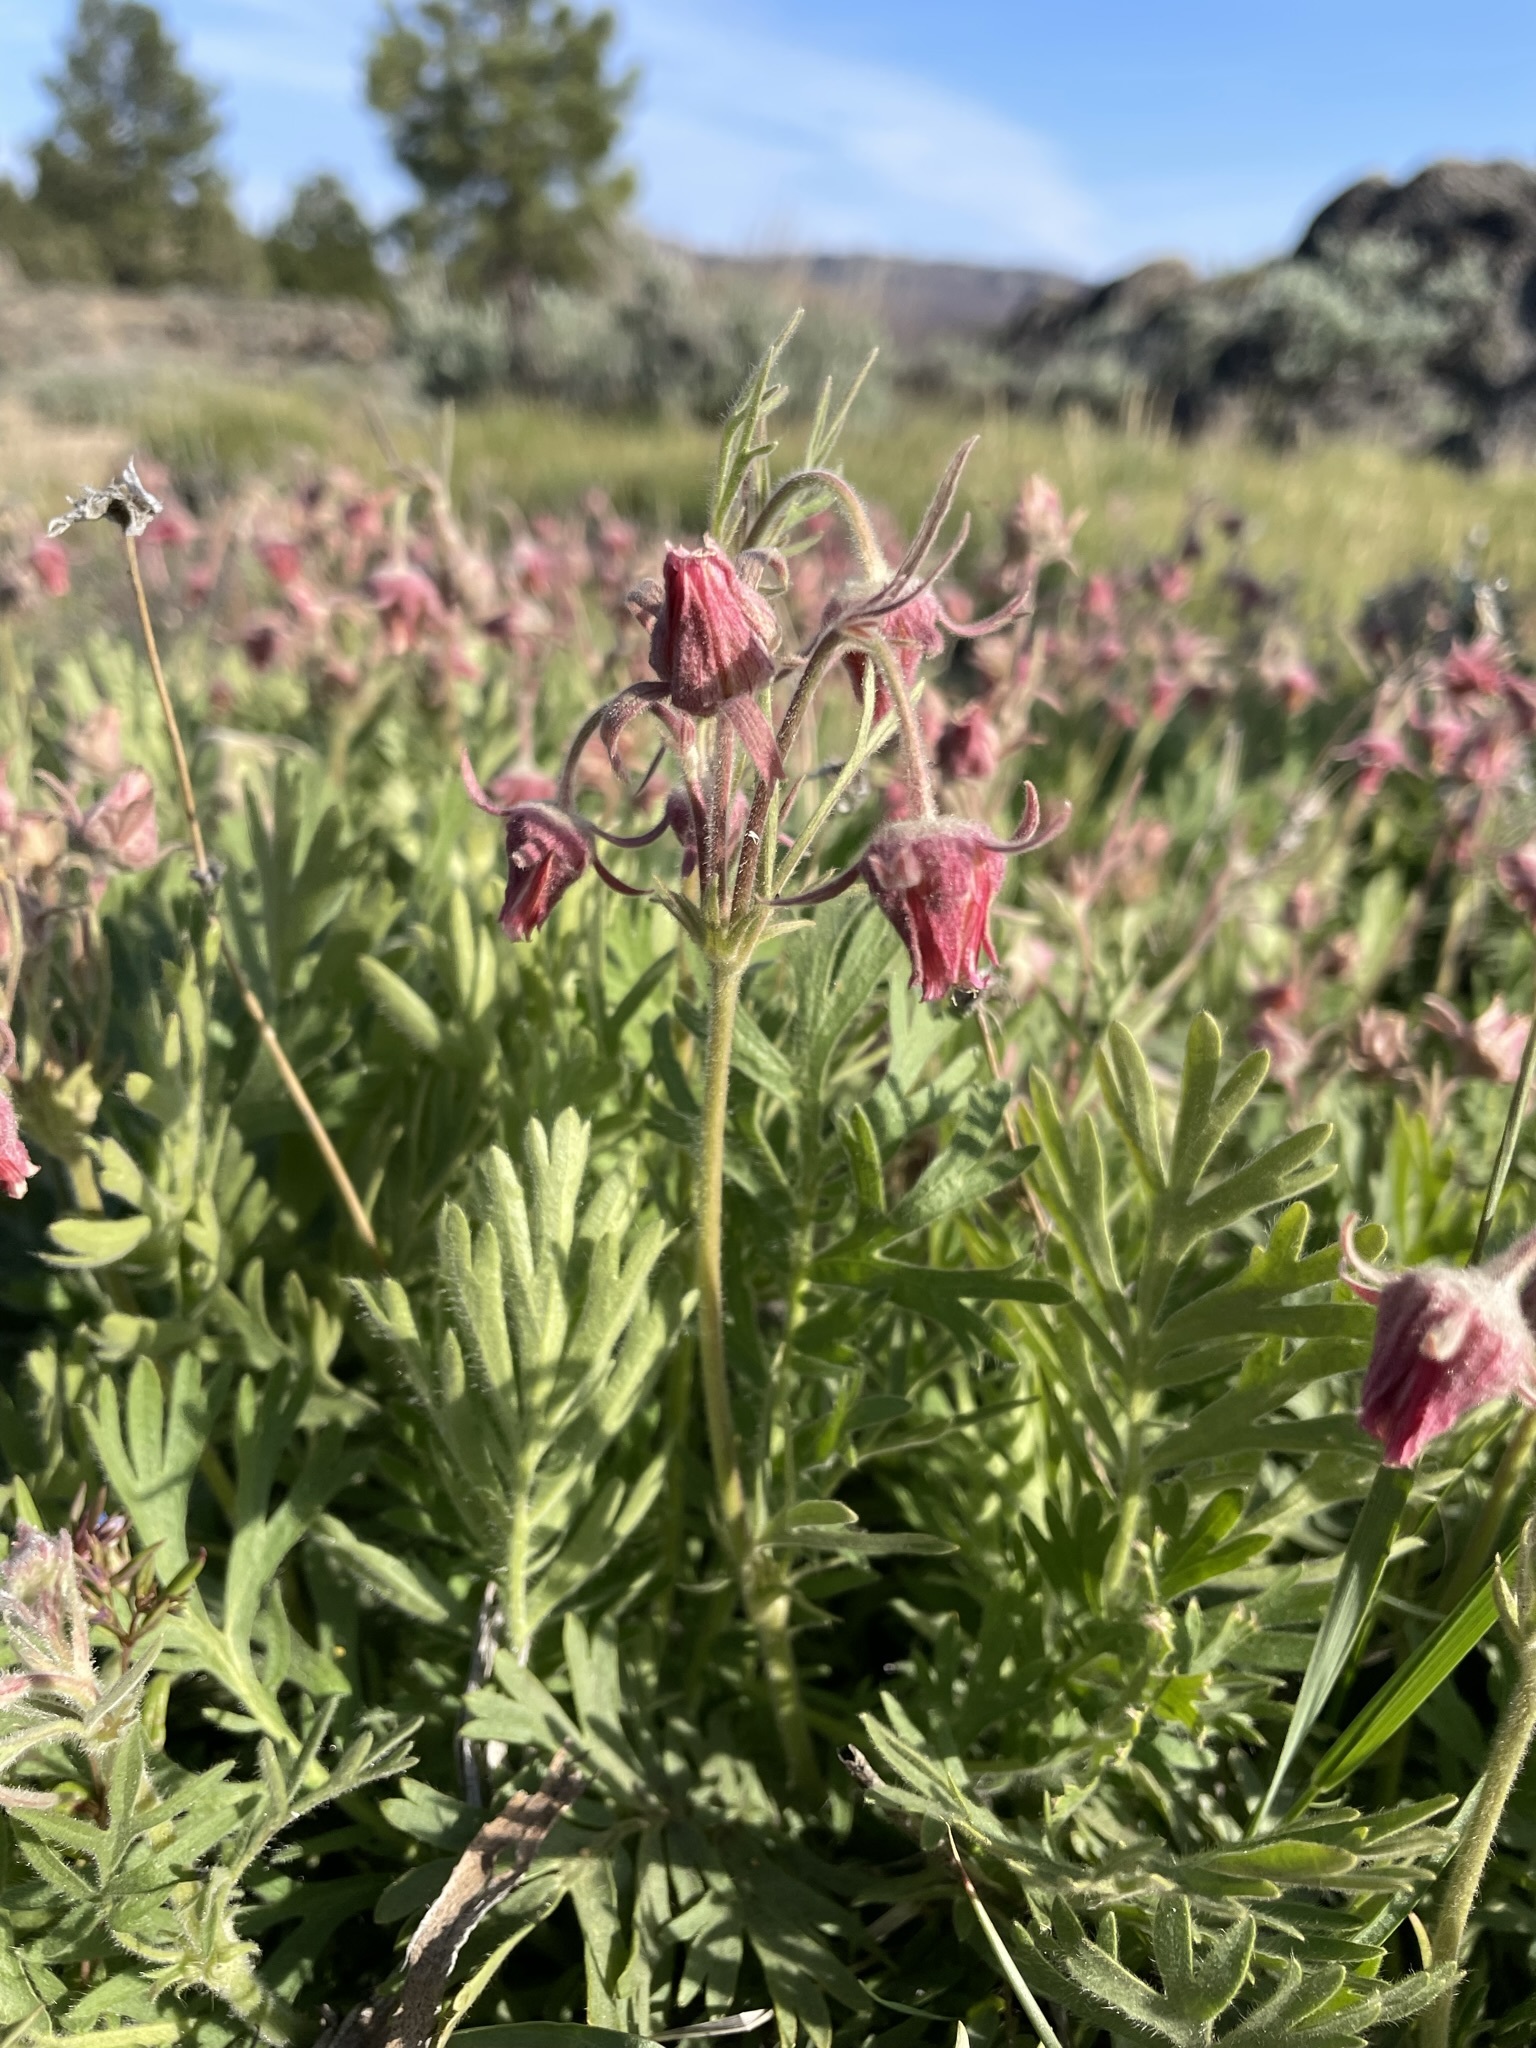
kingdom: Plantae
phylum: Tracheophyta
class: Magnoliopsida
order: Rosales
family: Rosaceae
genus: Geum
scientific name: Geum triflorum
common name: Old man's whiskers
